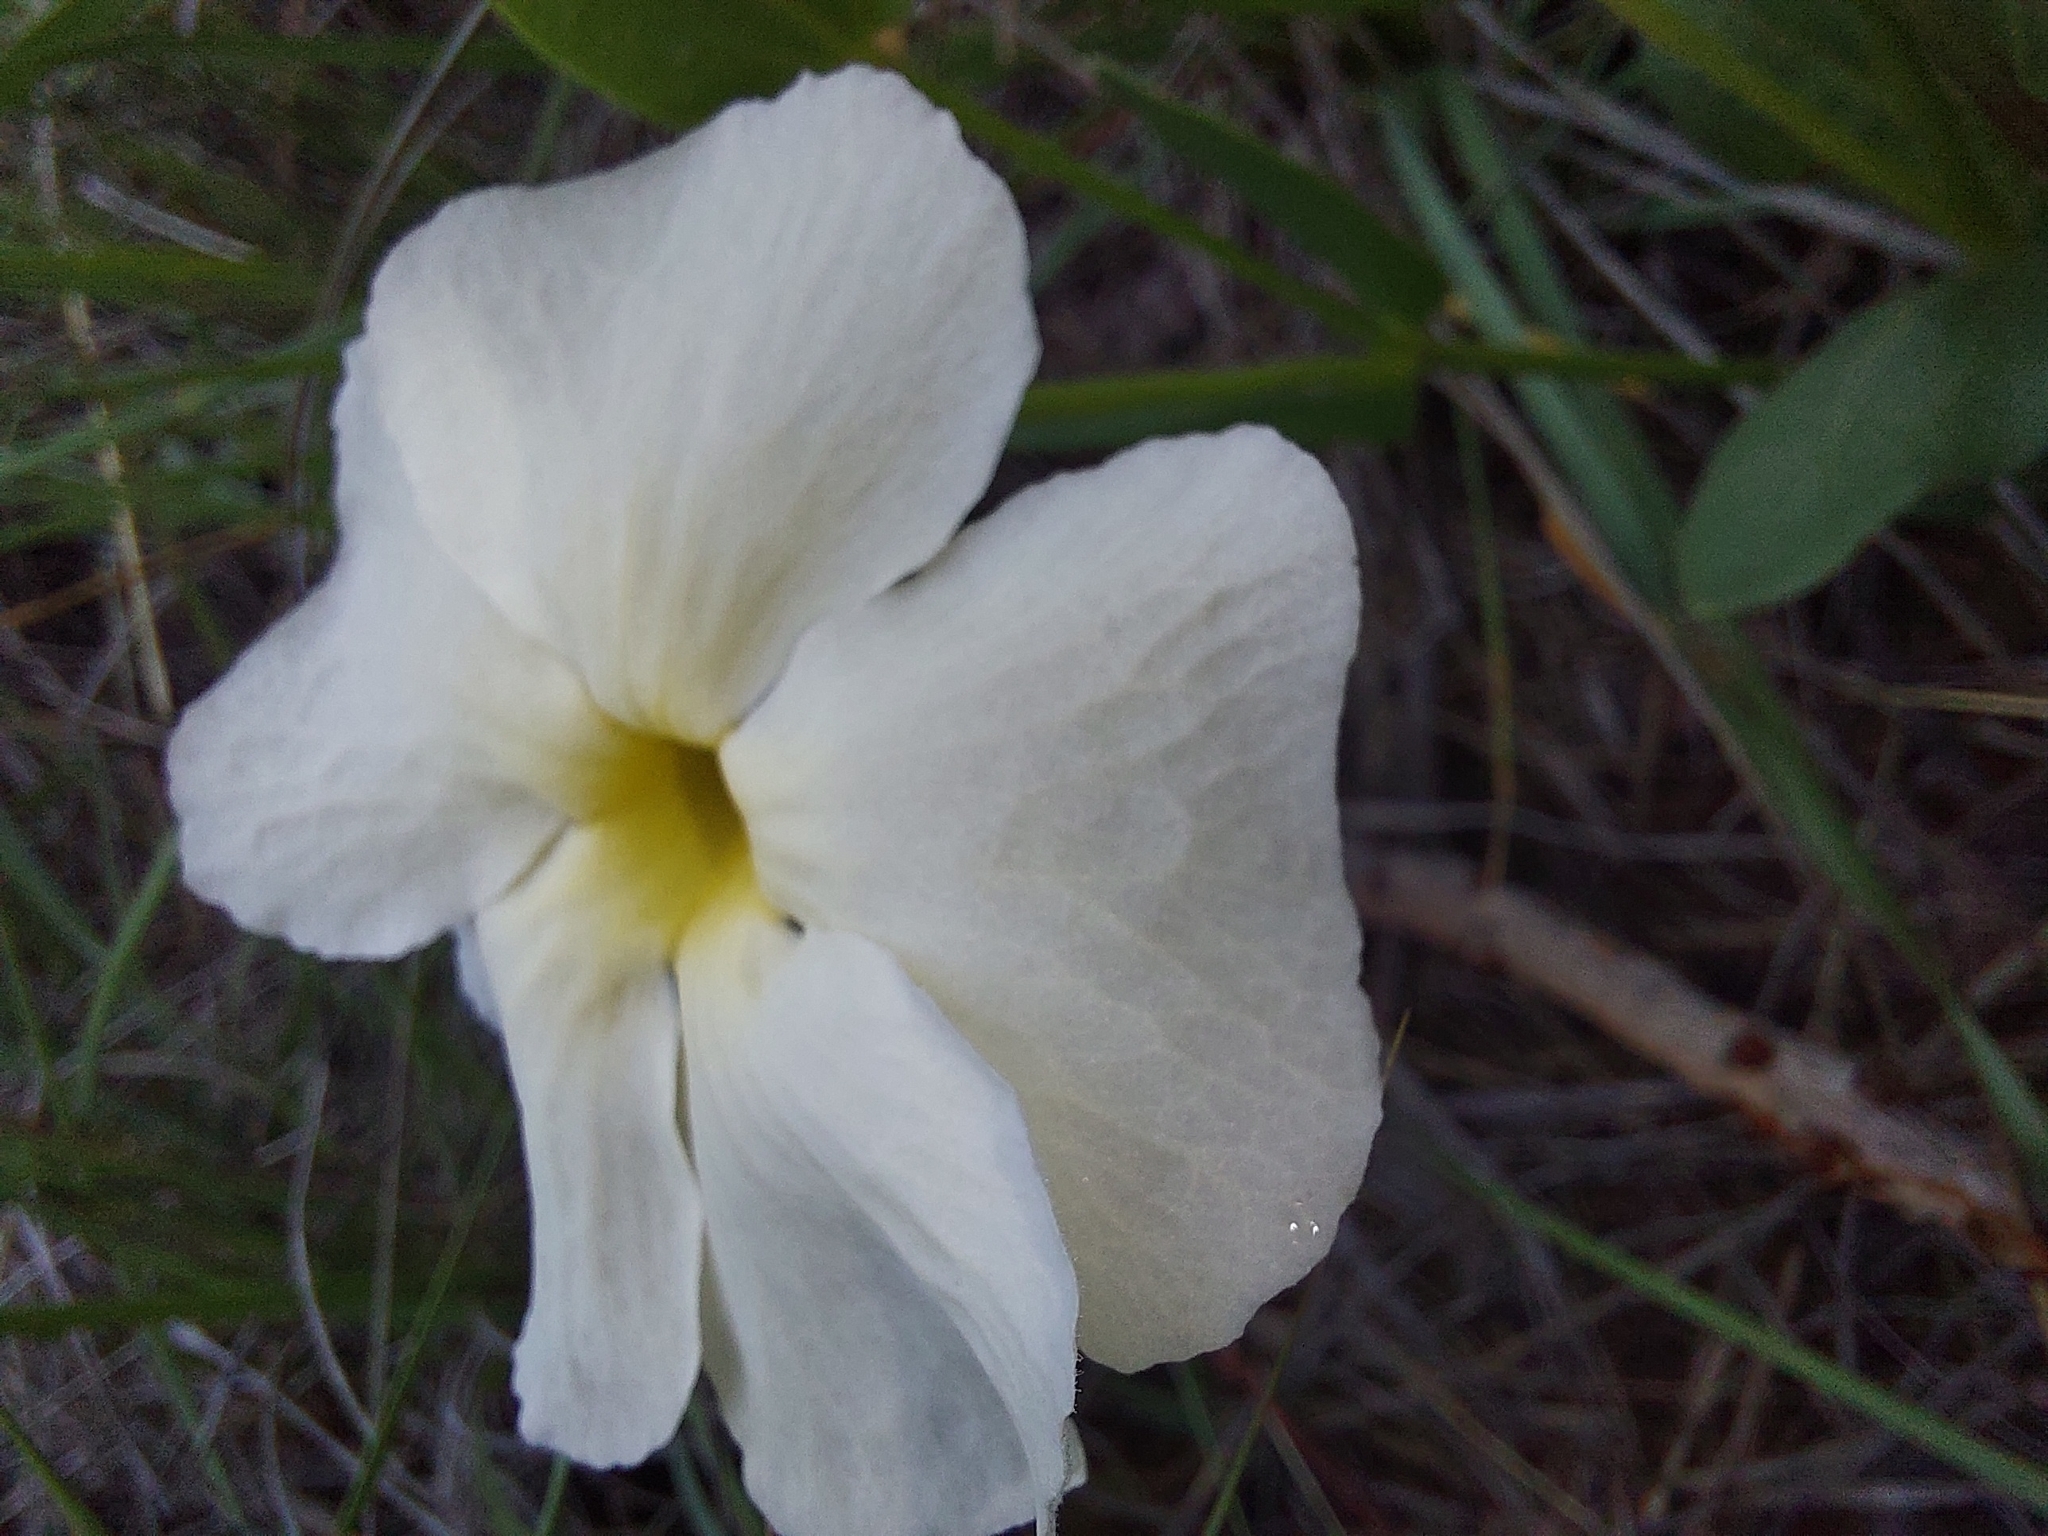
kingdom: Plantae
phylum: Tracheophyta
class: Magnoliopsida
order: Lamiales
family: Acanthaceae
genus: Thunbergia
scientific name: Thunbergia atriplicifolia
